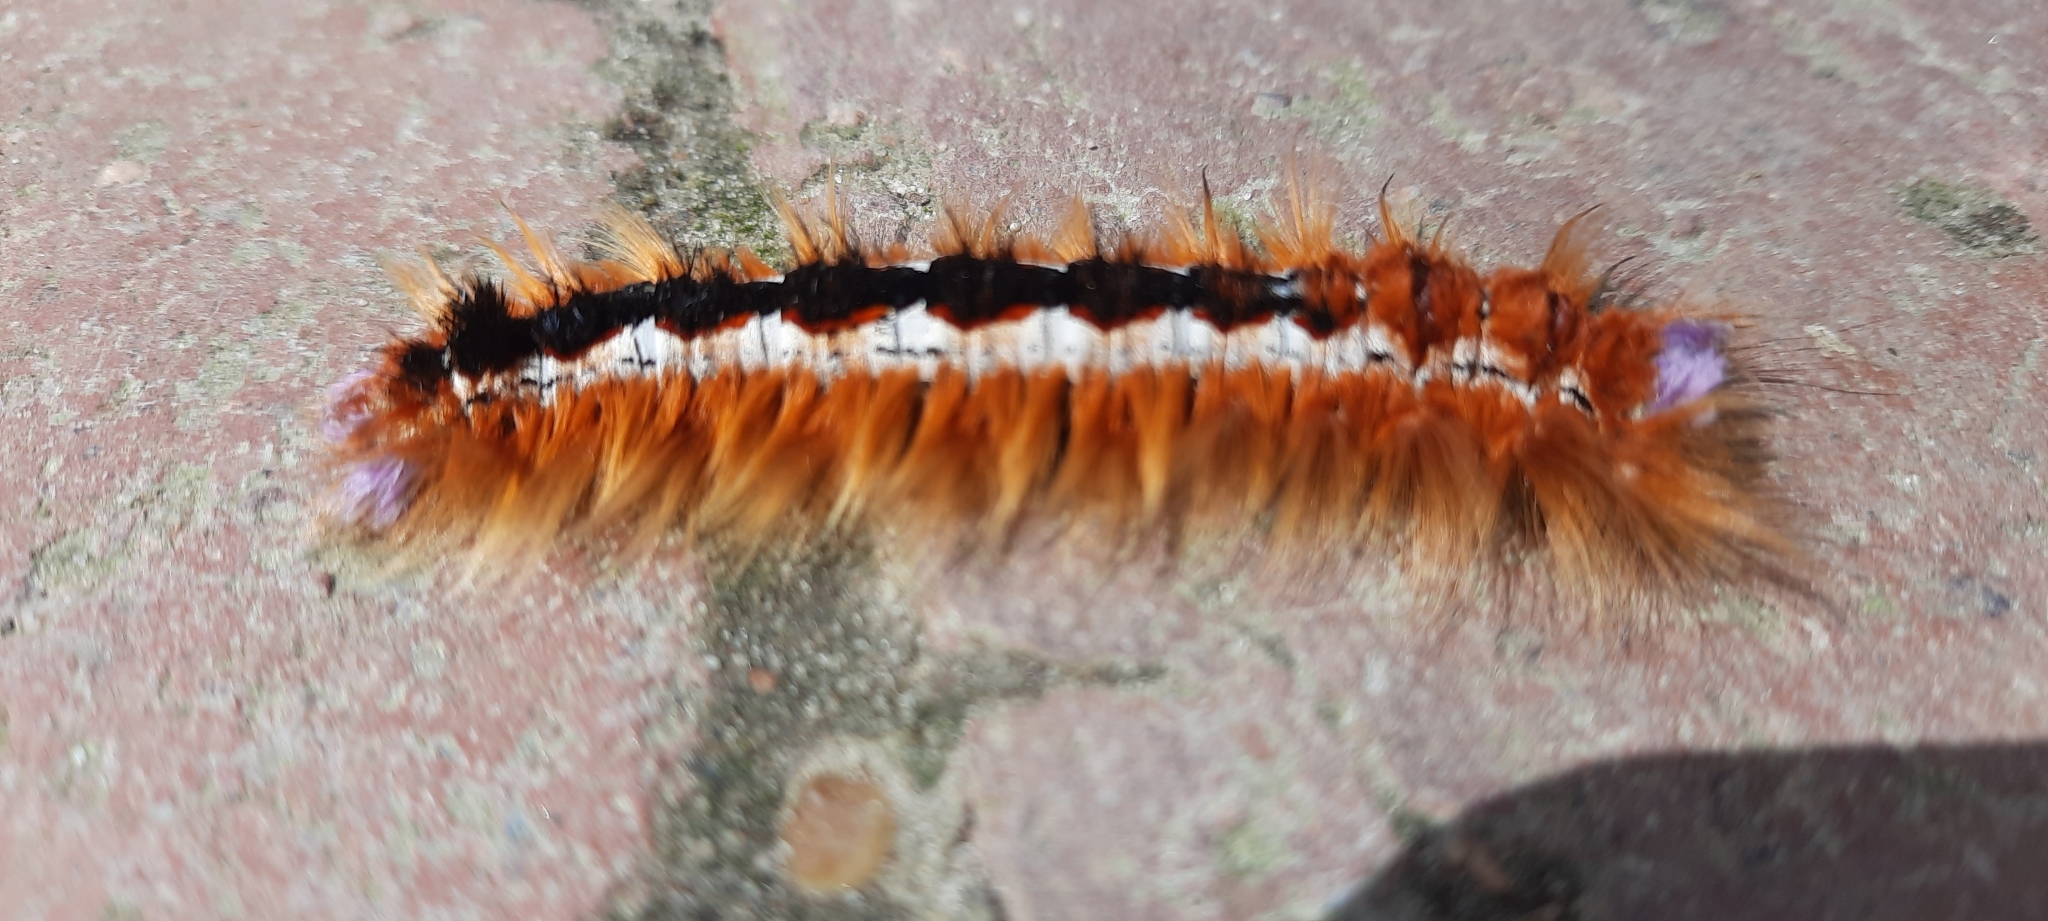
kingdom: Animalia
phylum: Arthropoda
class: Insecta
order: Lepidoptera
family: Lasiocampidae
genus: Eutricha
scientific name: Eutricha capensis
